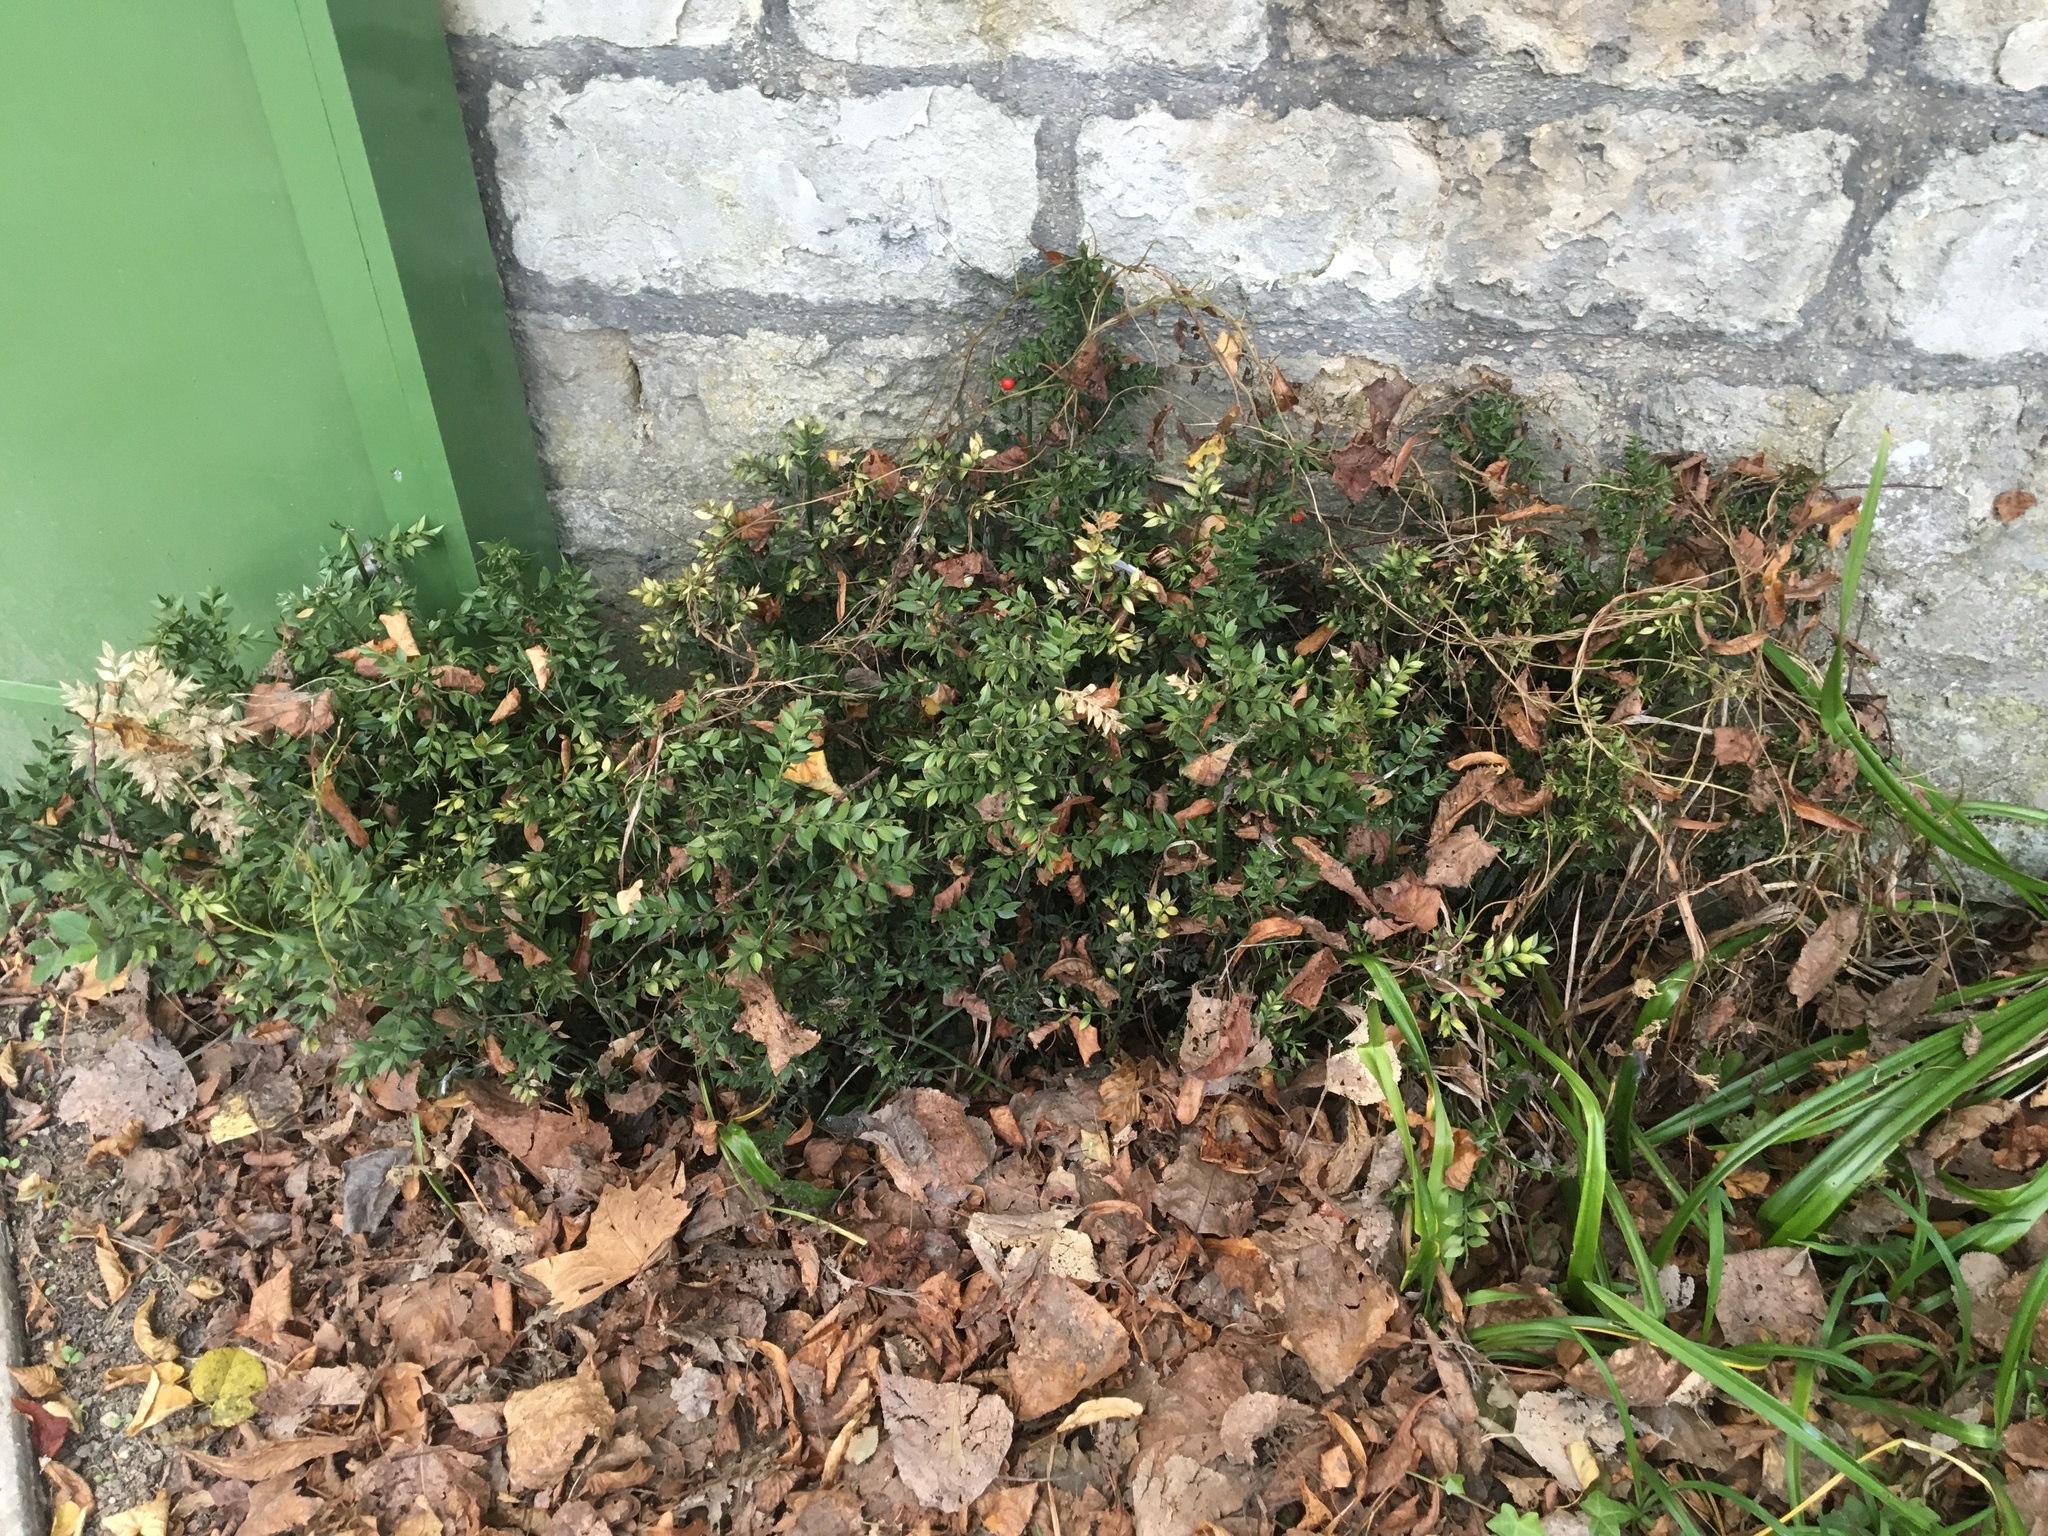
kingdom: Plantae
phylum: Tracheophyta
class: Liliopsida
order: Asparagales
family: Asparagaceae
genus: Ruscus
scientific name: Ruscus aculeatus
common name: Butcher's-broom
